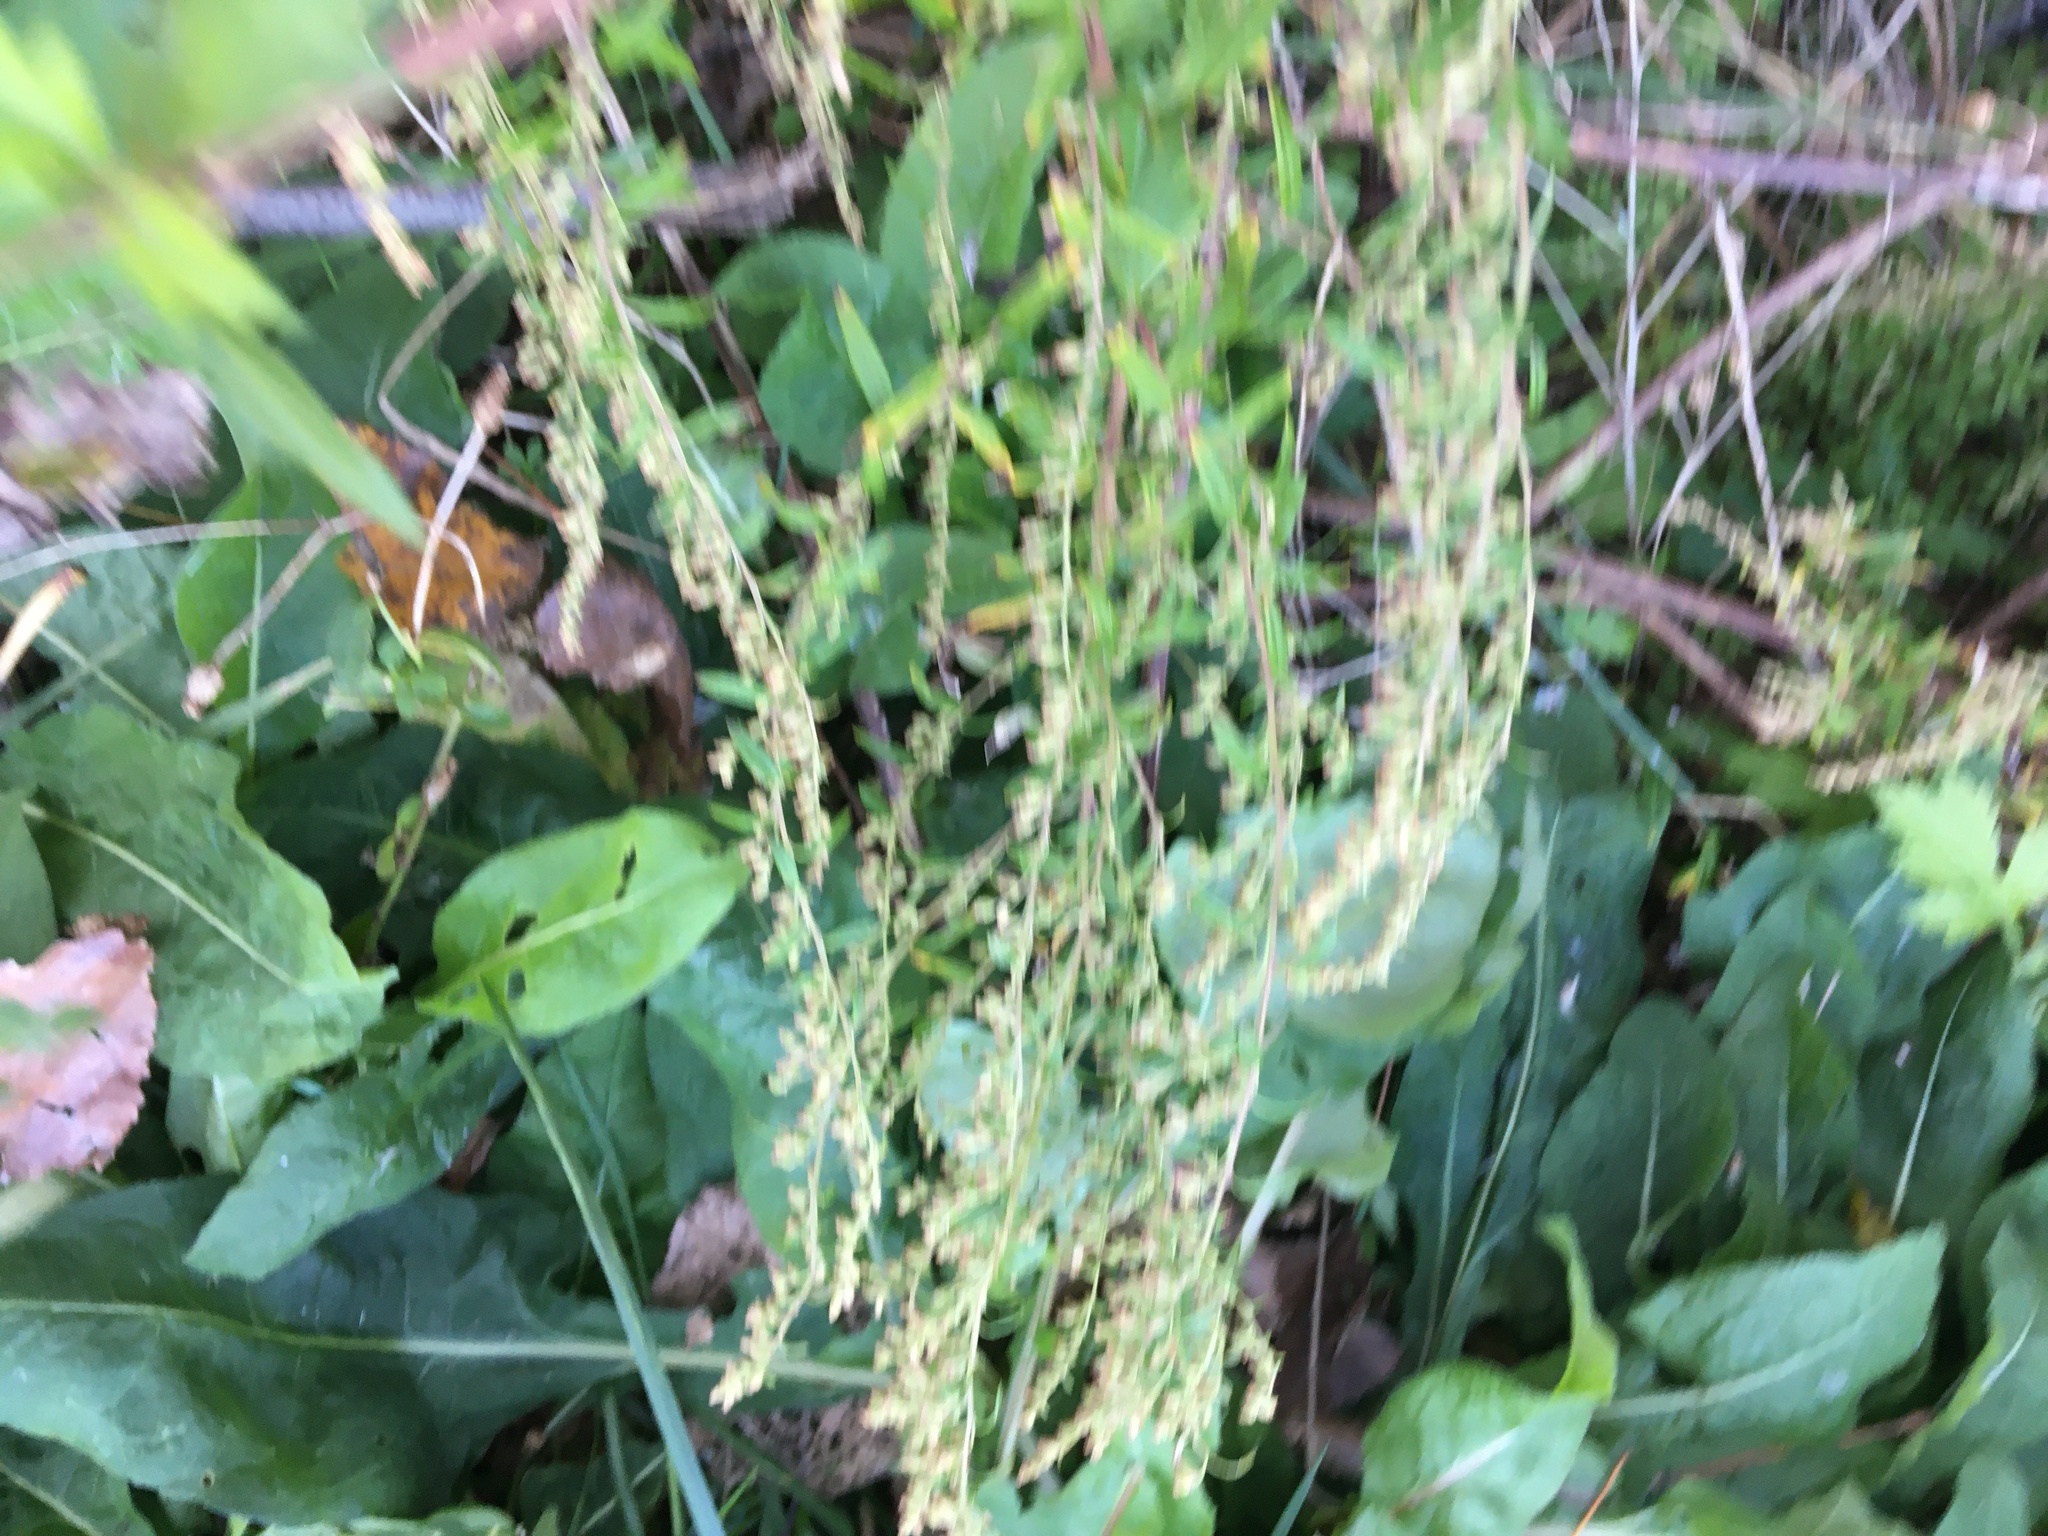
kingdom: Plantae
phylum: Tracheophyta
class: Magnoliopsida
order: Asterales
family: Asteraceae
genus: Artemisia
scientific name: Artemisia vulgaris
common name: Mugwort
